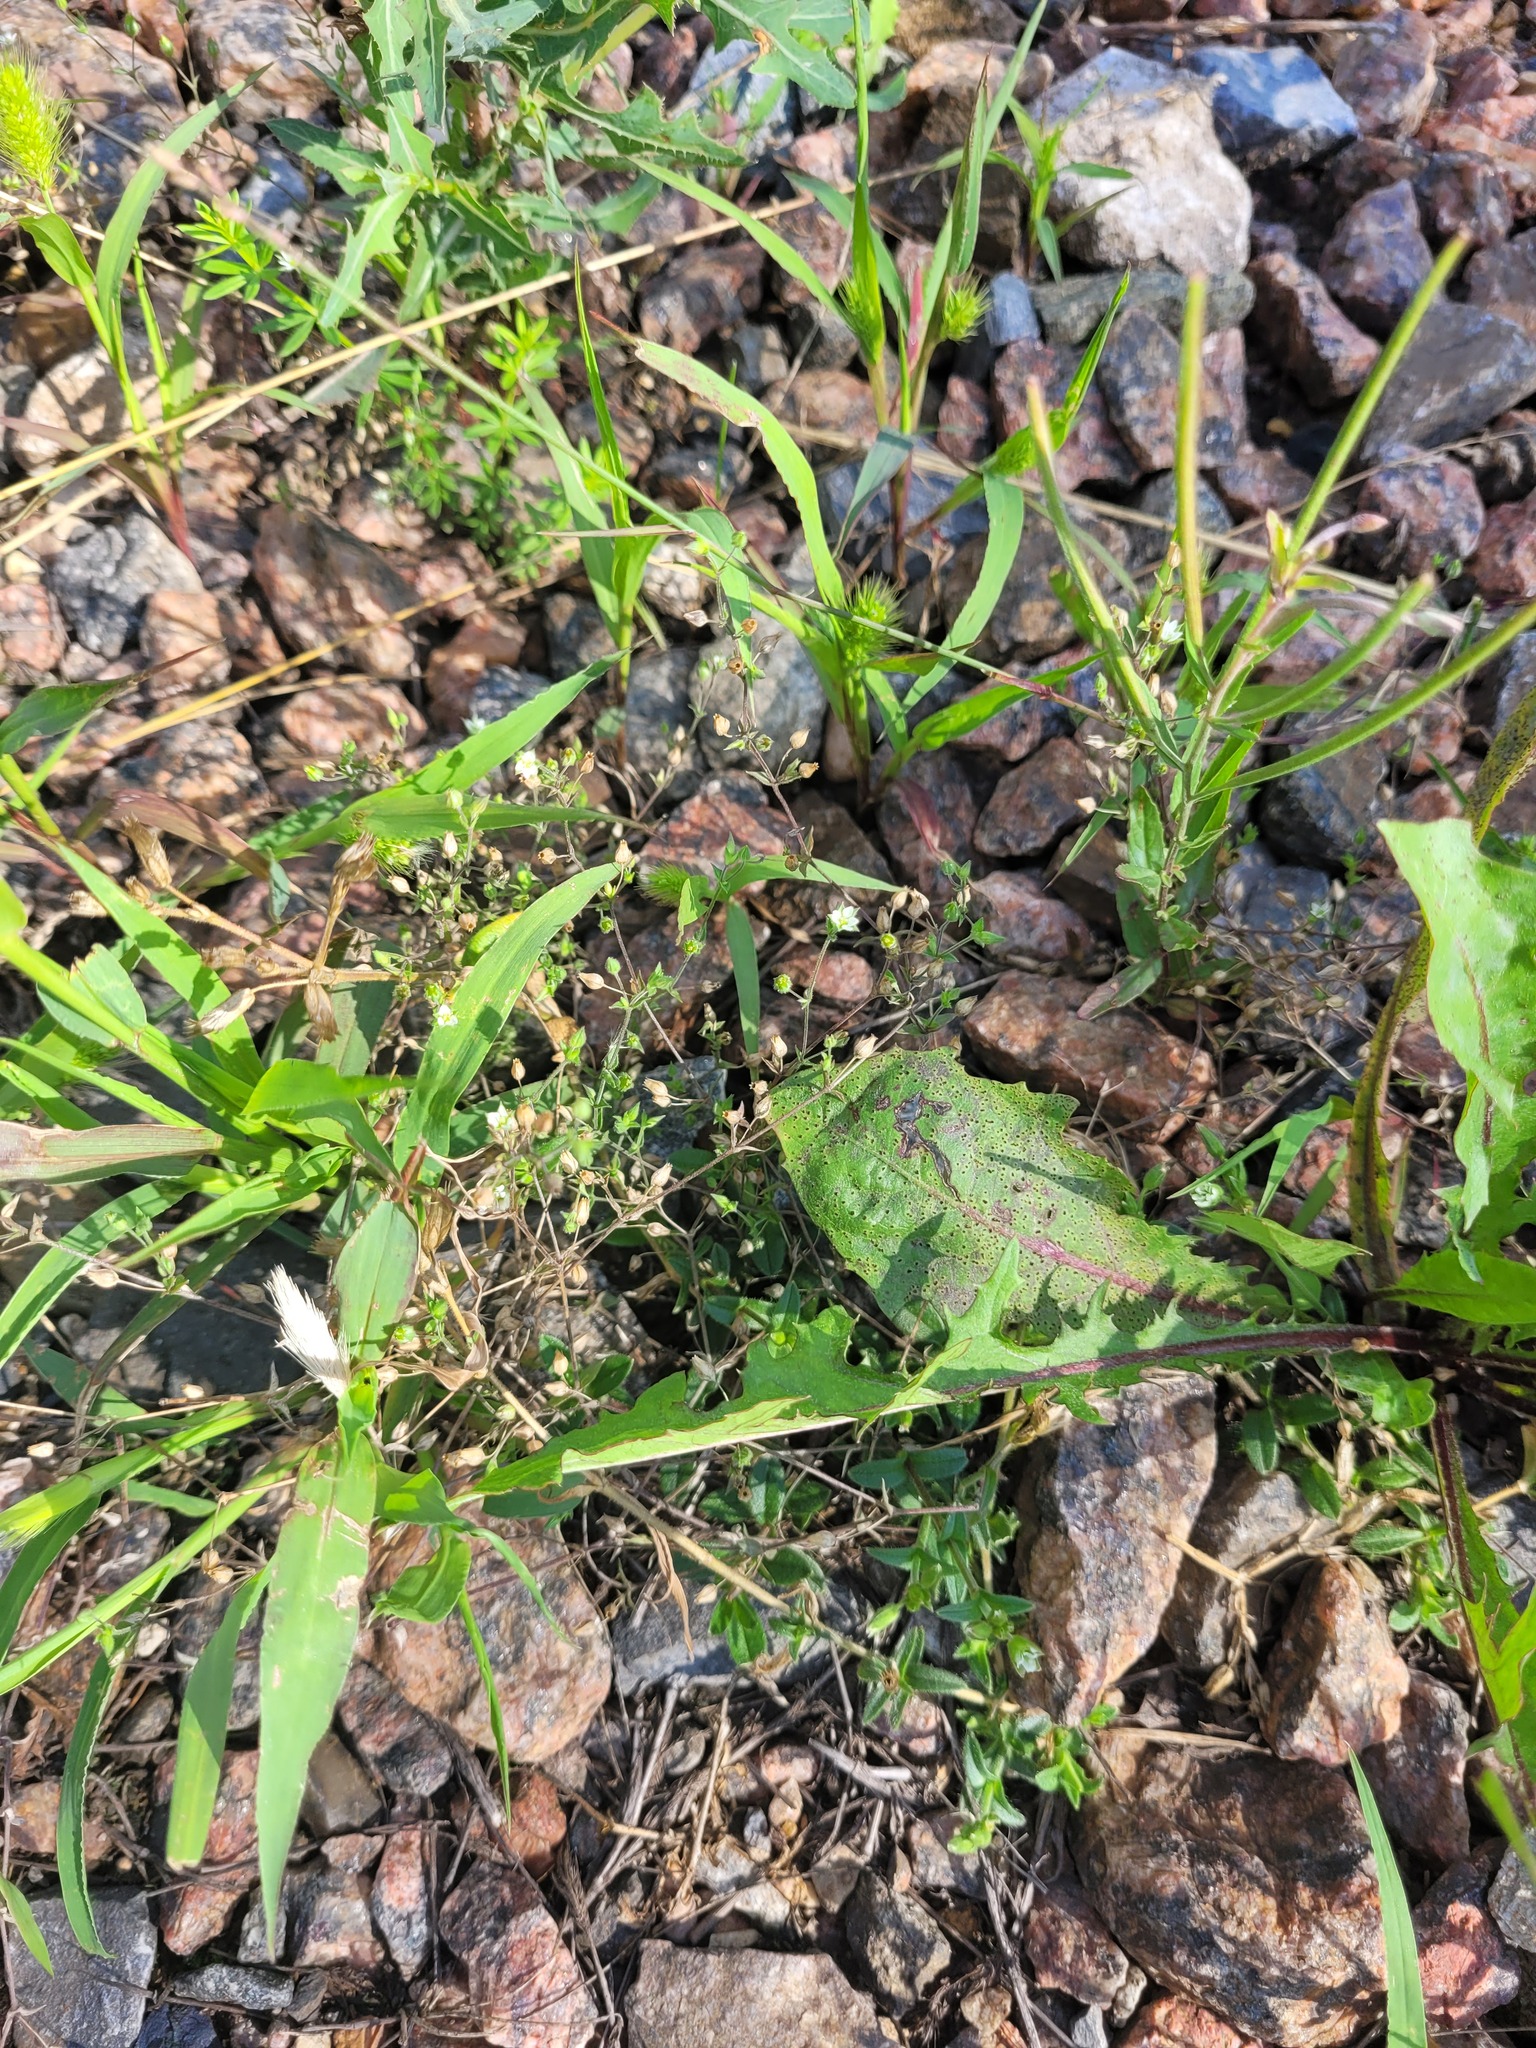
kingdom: Plantae
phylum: Tracheophyta
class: Magnoliopsida
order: Caryophyllales
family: Caryophyllaceae
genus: Arenaria
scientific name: Arenaria serpyllifolia
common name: Thyme-leaved sandwort
